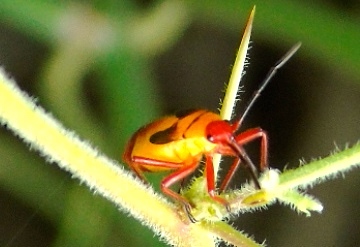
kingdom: Animalia
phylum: Arthropoda
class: Insecta
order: Hemiptera
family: Lygaeidae
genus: Oncopeltus
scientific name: Oncopeltus guttaloides
